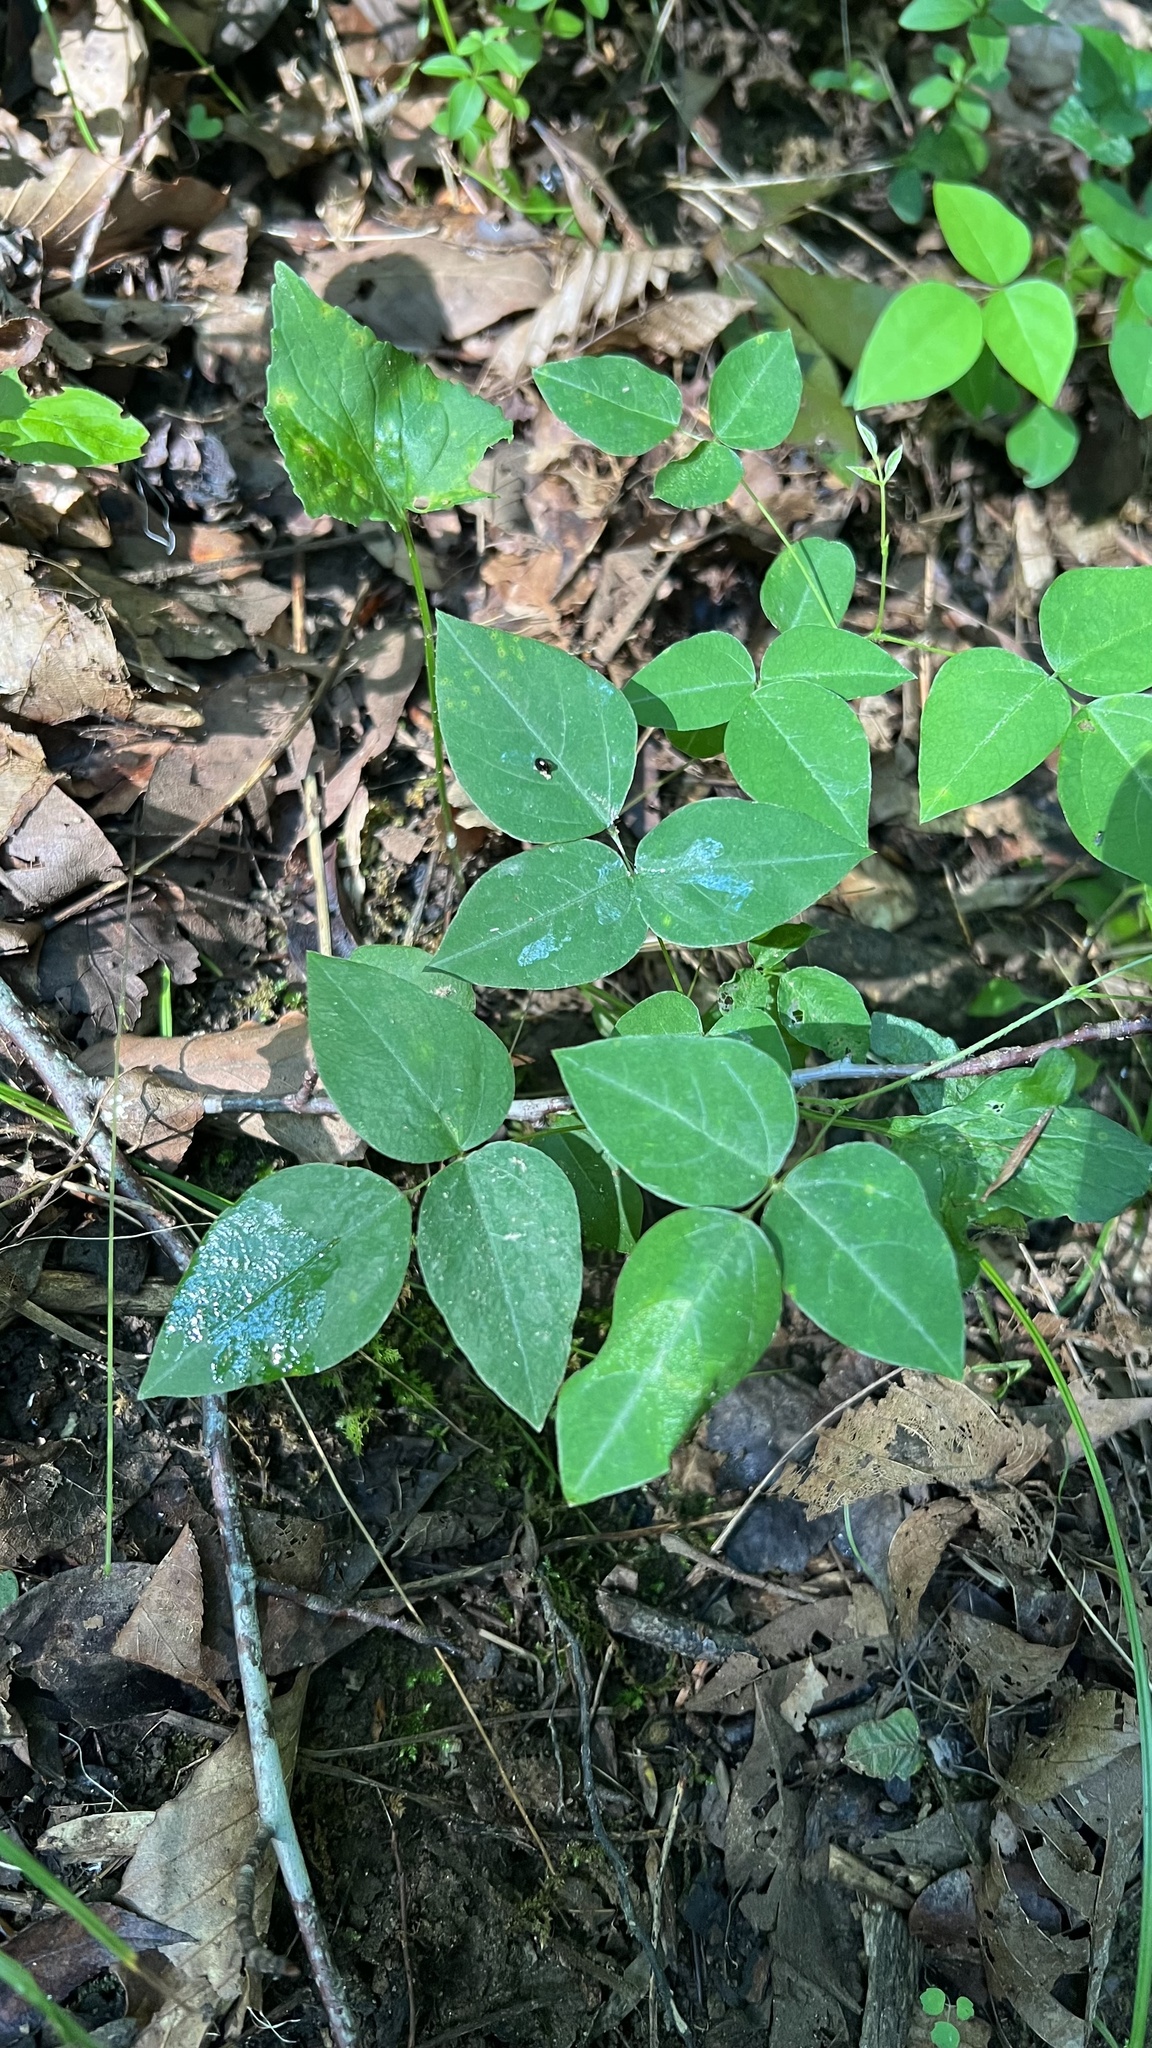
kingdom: Plantae
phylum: Tracheophyta
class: Magnoliopsida
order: Fabales
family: Fabaceae
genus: Amphicarpaea
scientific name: Amphicarpaea bracteata
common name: American hog peanut
